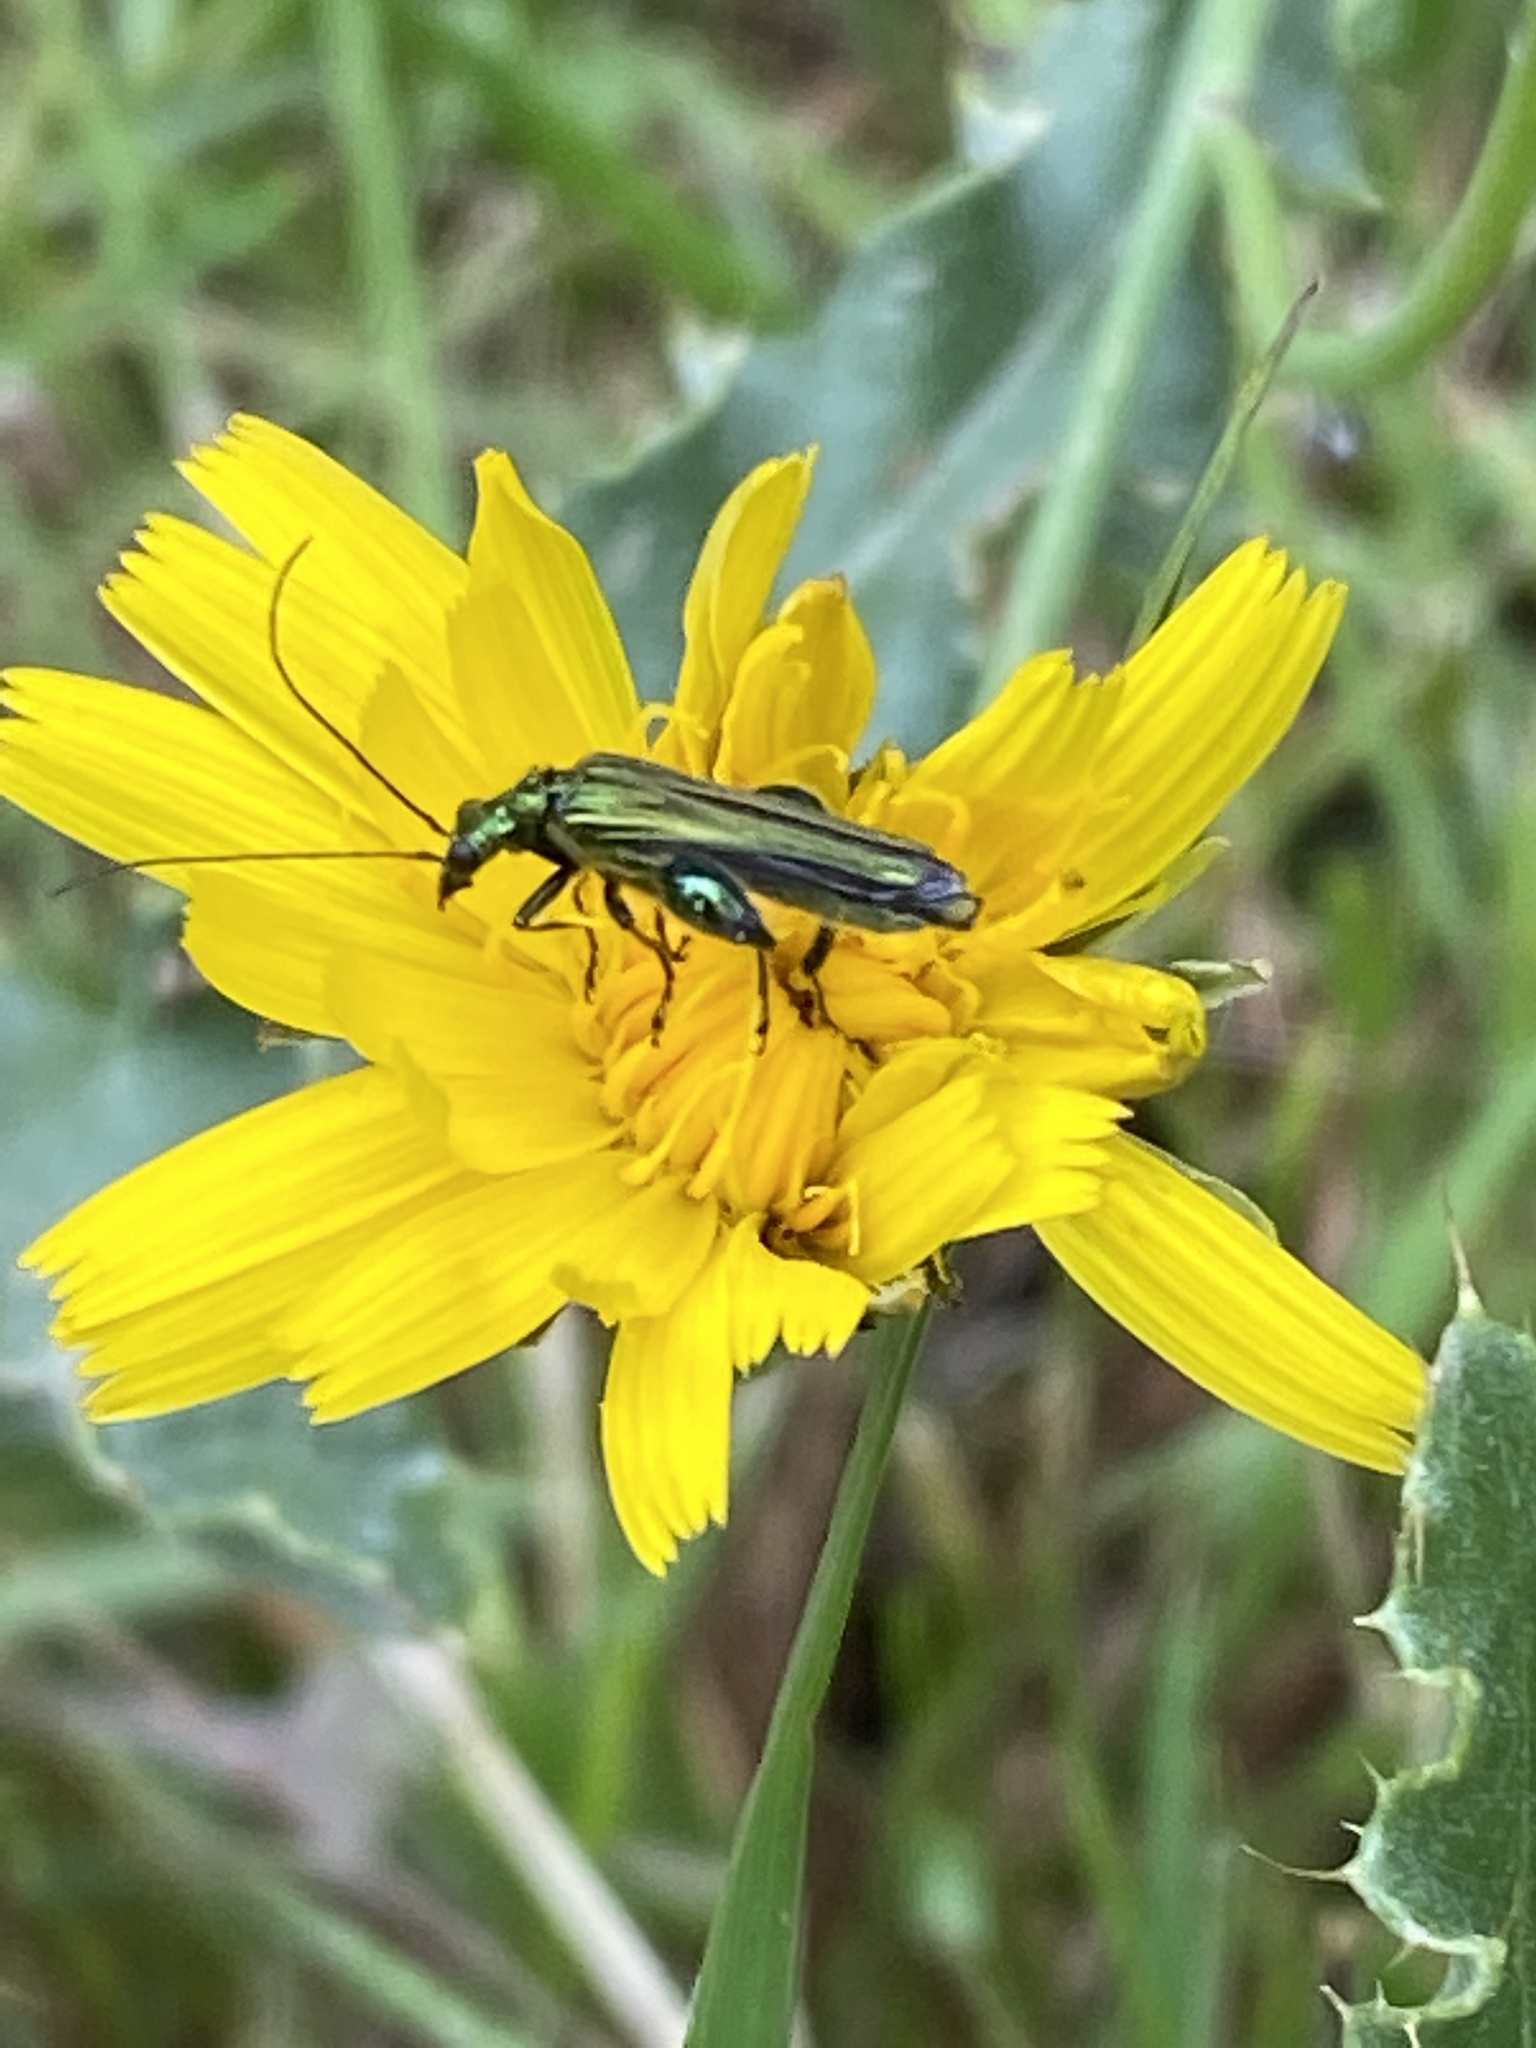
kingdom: Animalia
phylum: Arthropoda
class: Insecta
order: Coleoptera
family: Oedemeridae
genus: Oedemera
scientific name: Oedemera nobilis
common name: Swollen-thighed beetle
